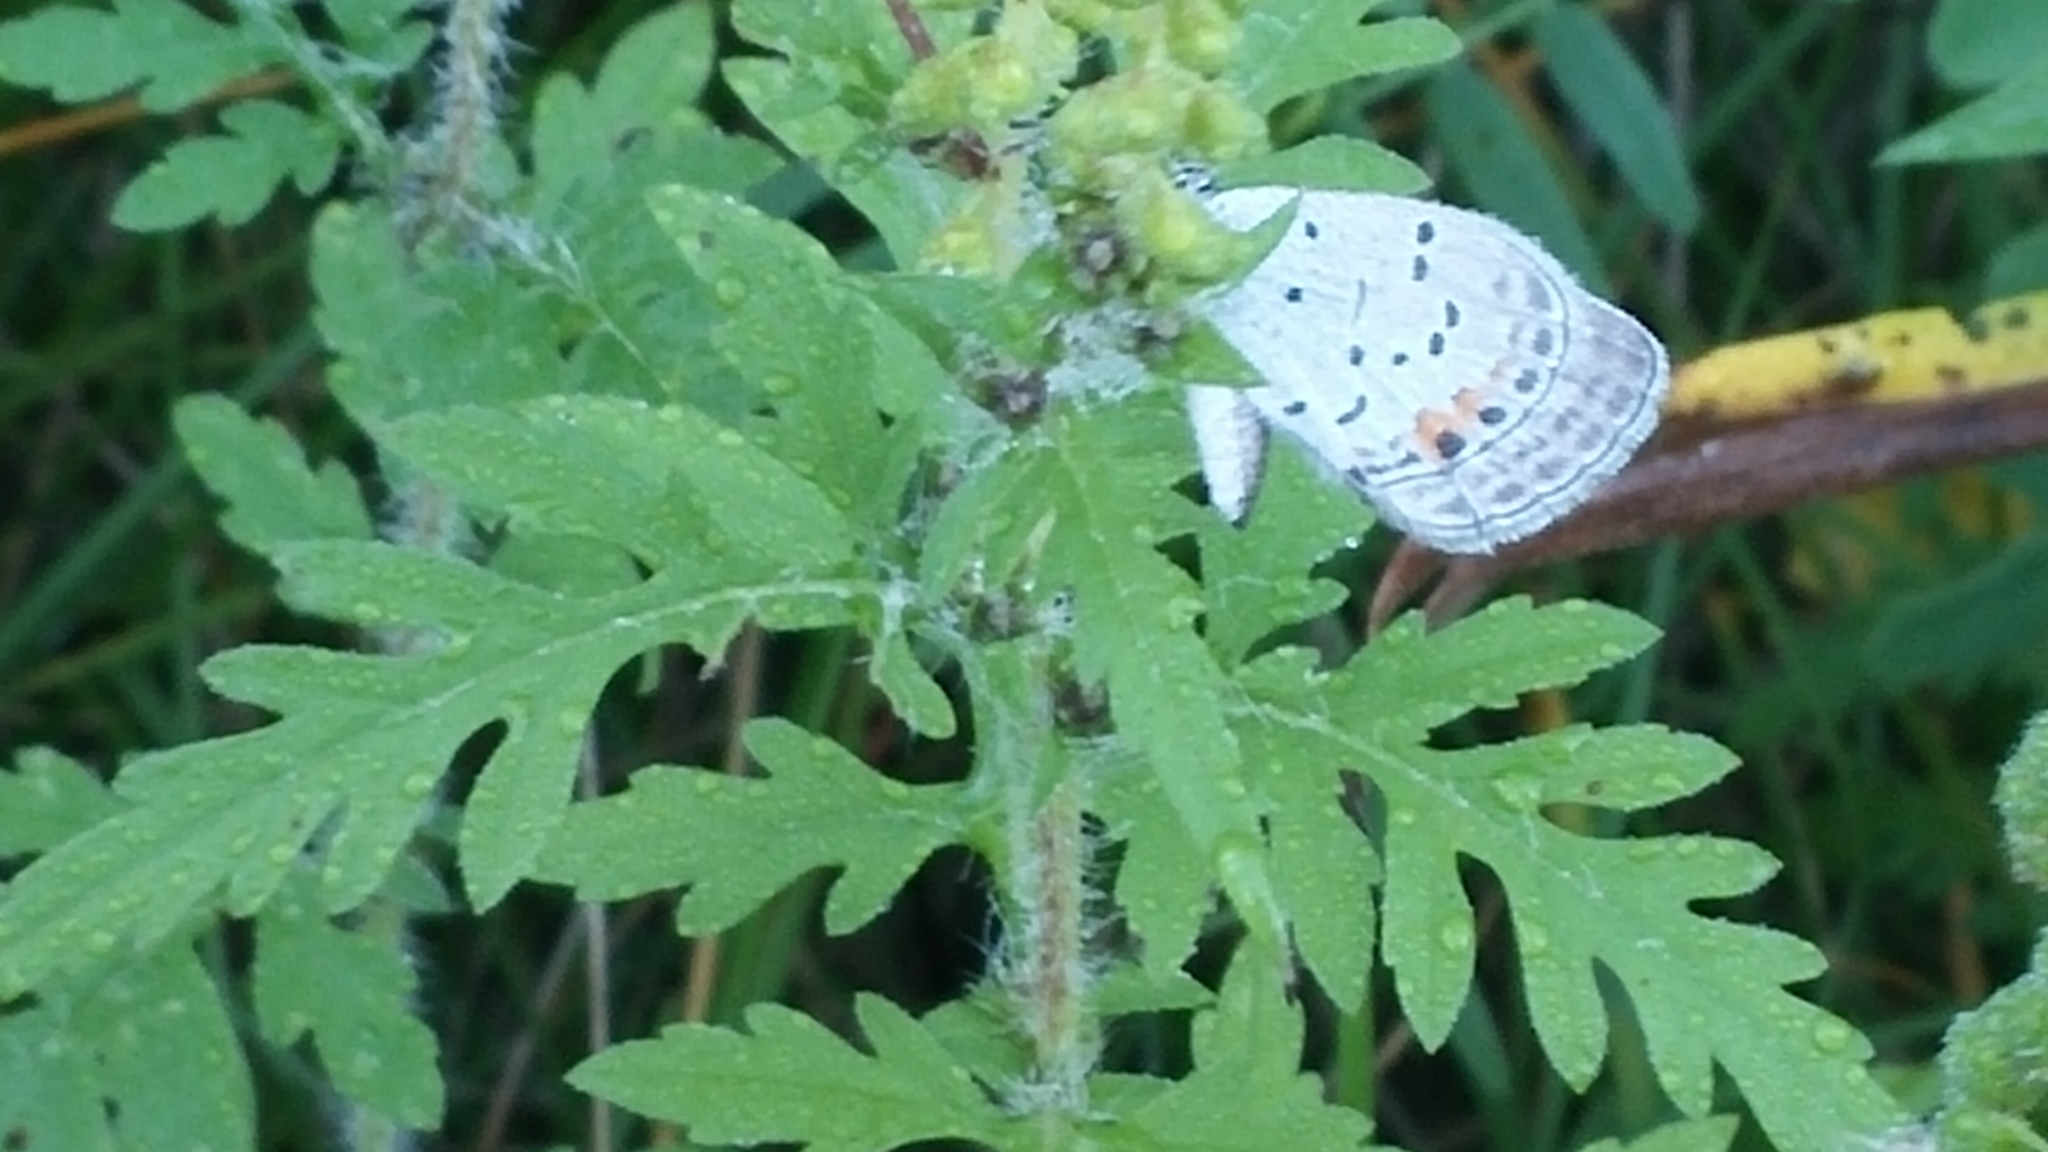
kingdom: Animalia
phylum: Arthropoda
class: Insecta
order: Lepidoptera
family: Lycaenidae
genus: Elkalyce
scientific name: Elkalyce comyntas
